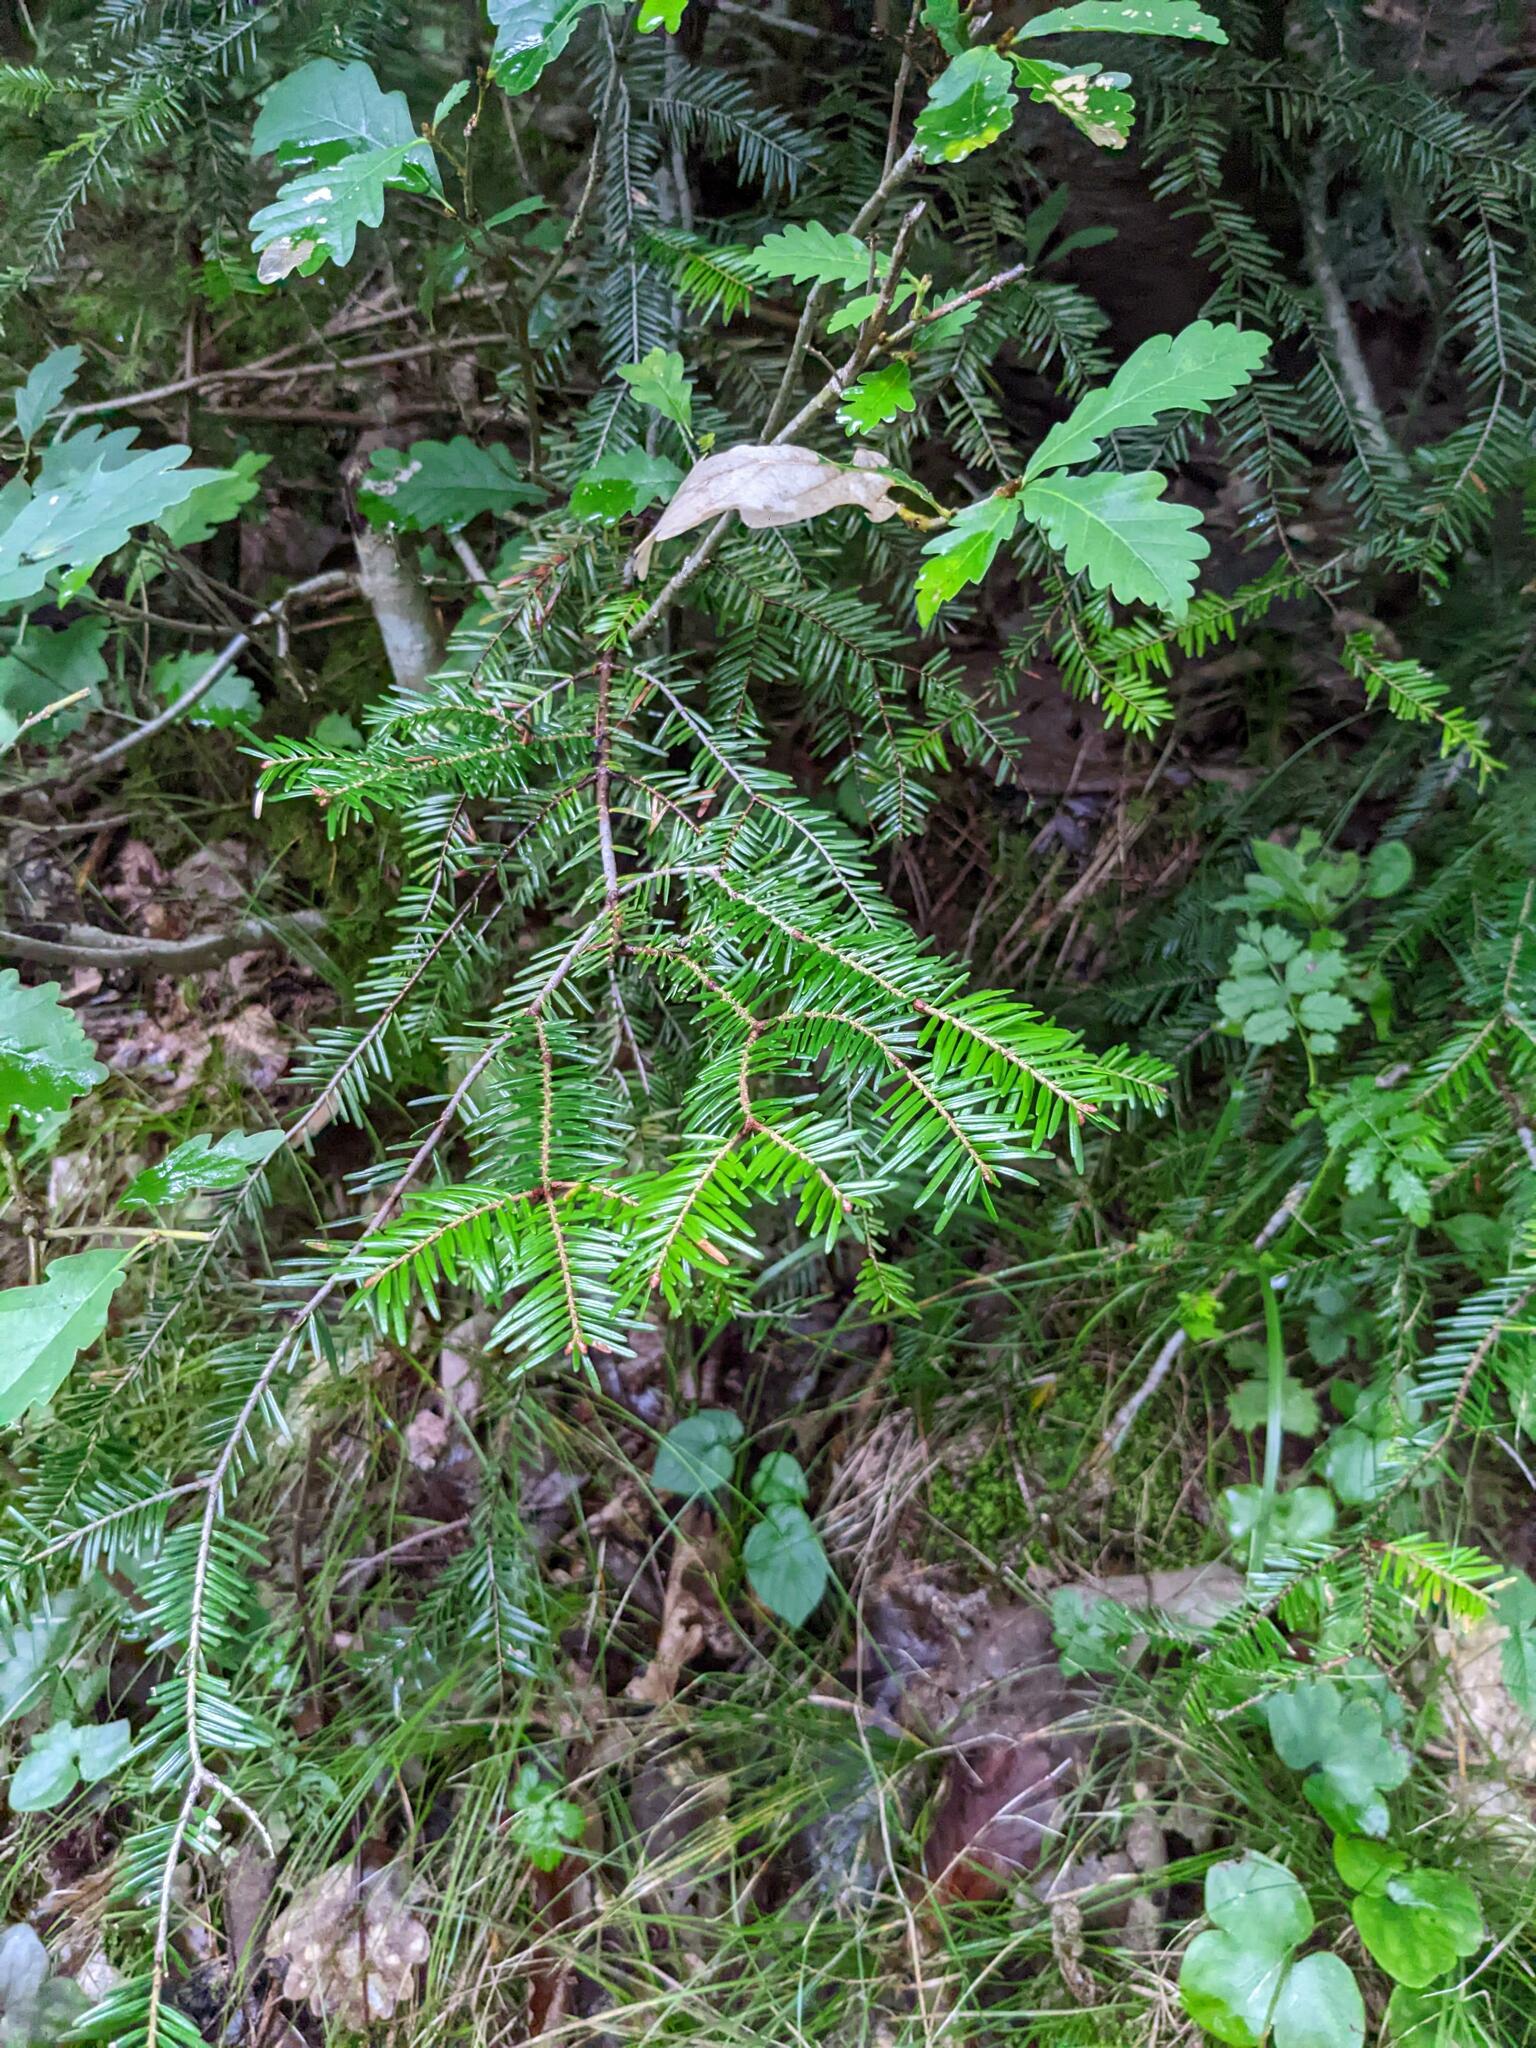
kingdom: Plantae
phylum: Tracheophyta
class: Pinopsida
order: Pinales
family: Pinaceae
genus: Abies
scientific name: Abies alba
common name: Silver fir
